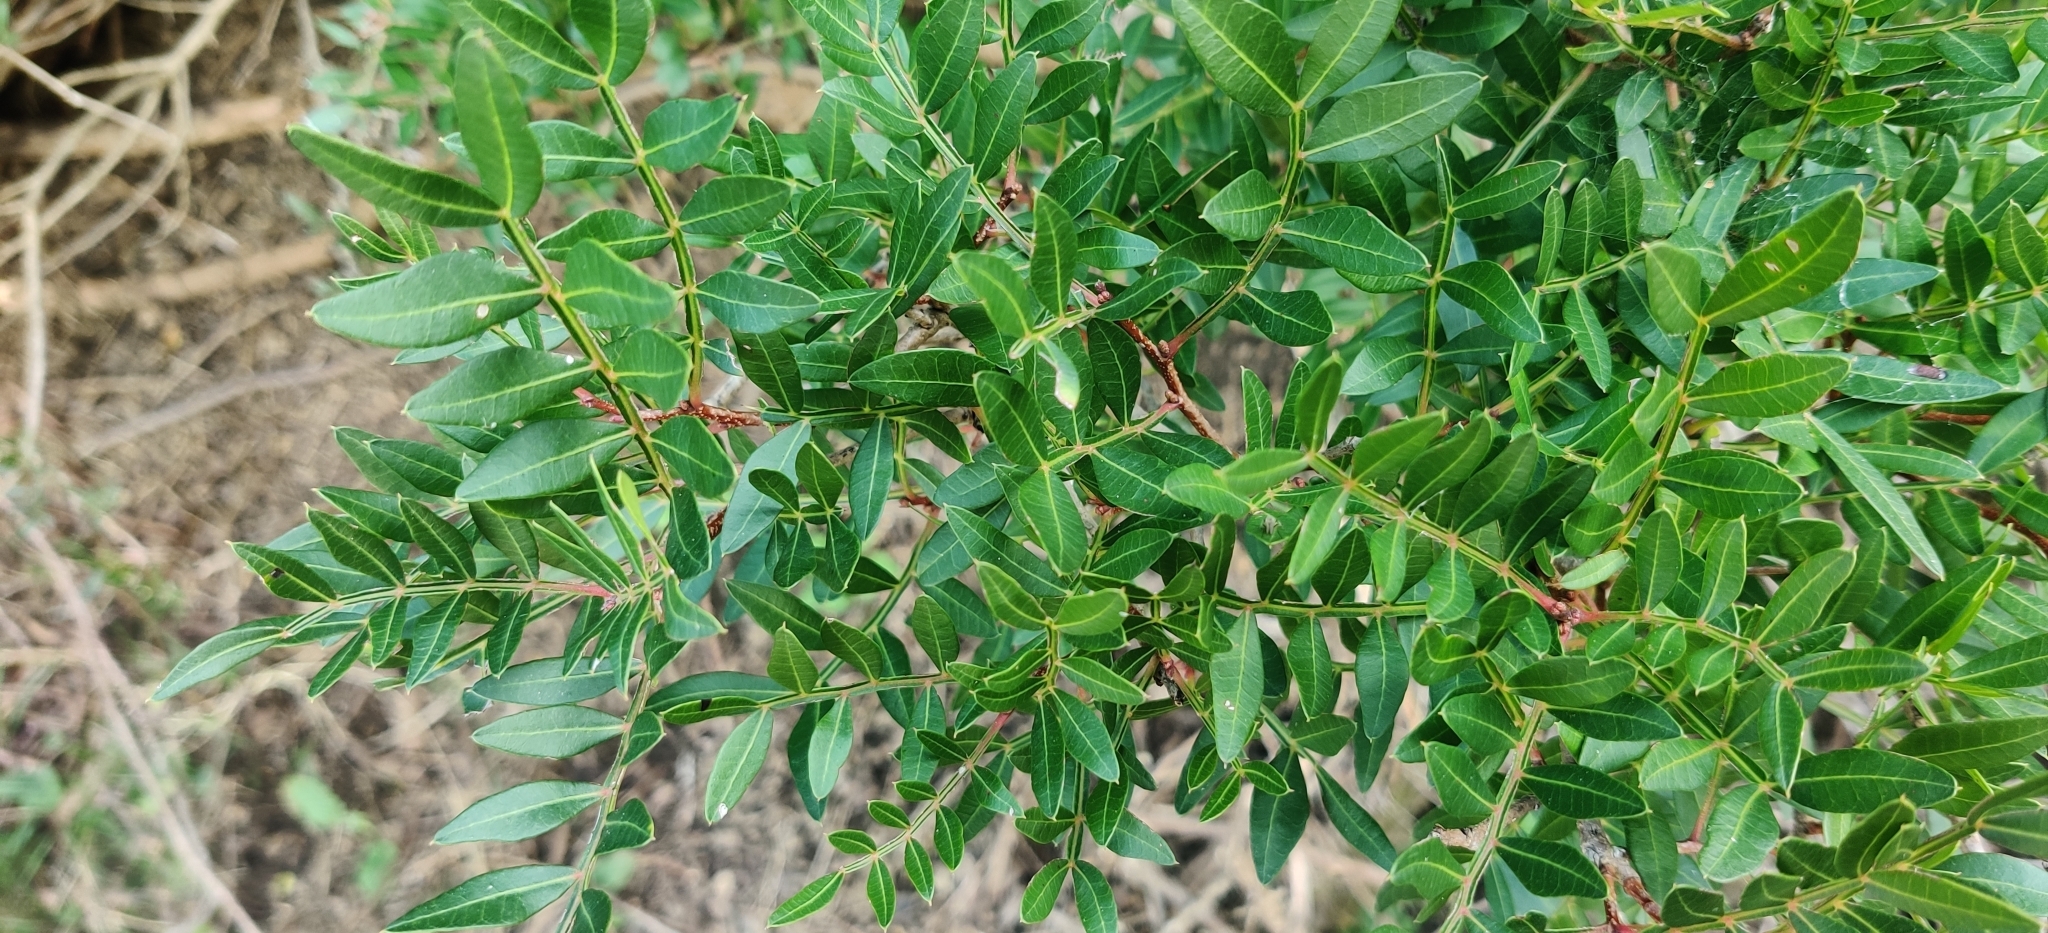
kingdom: Plantae
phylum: Tracheophyta
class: Magnoliopsida
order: Sapindales
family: Anacardiaceae
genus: Pistacia
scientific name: Pistacia lentiscus
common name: Lentisk
